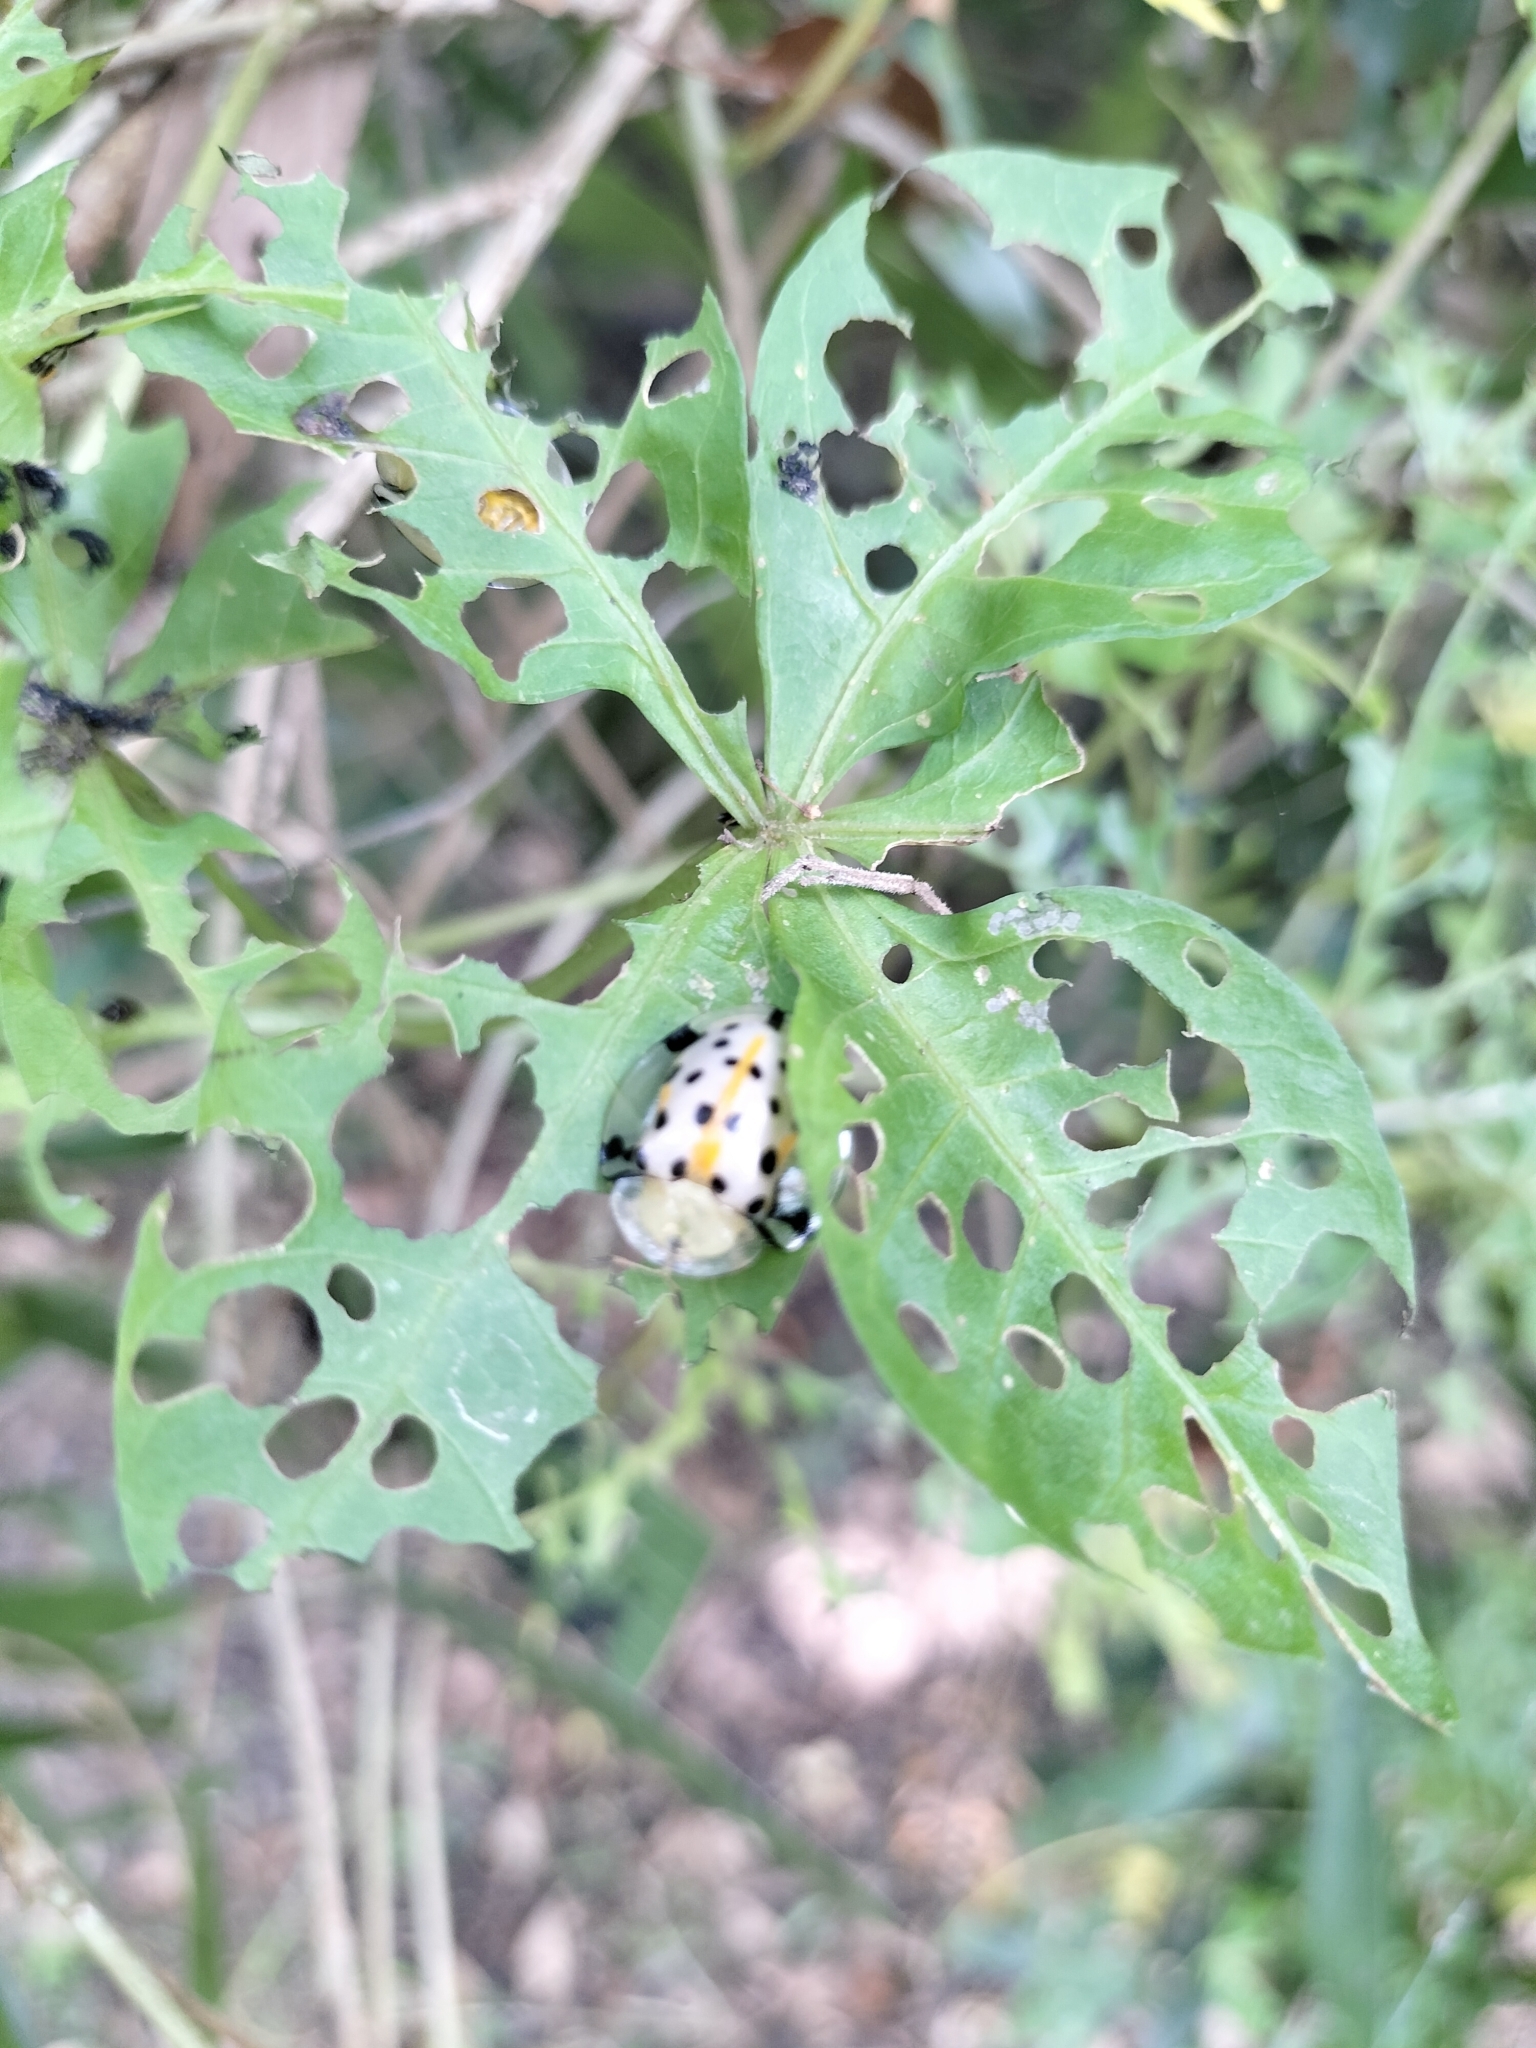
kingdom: Animalia
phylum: Arthropoda
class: Insecta
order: Coleoptera
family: Chrysomelidae
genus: Aspidimorpha
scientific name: Aspidimorpha miliaris
